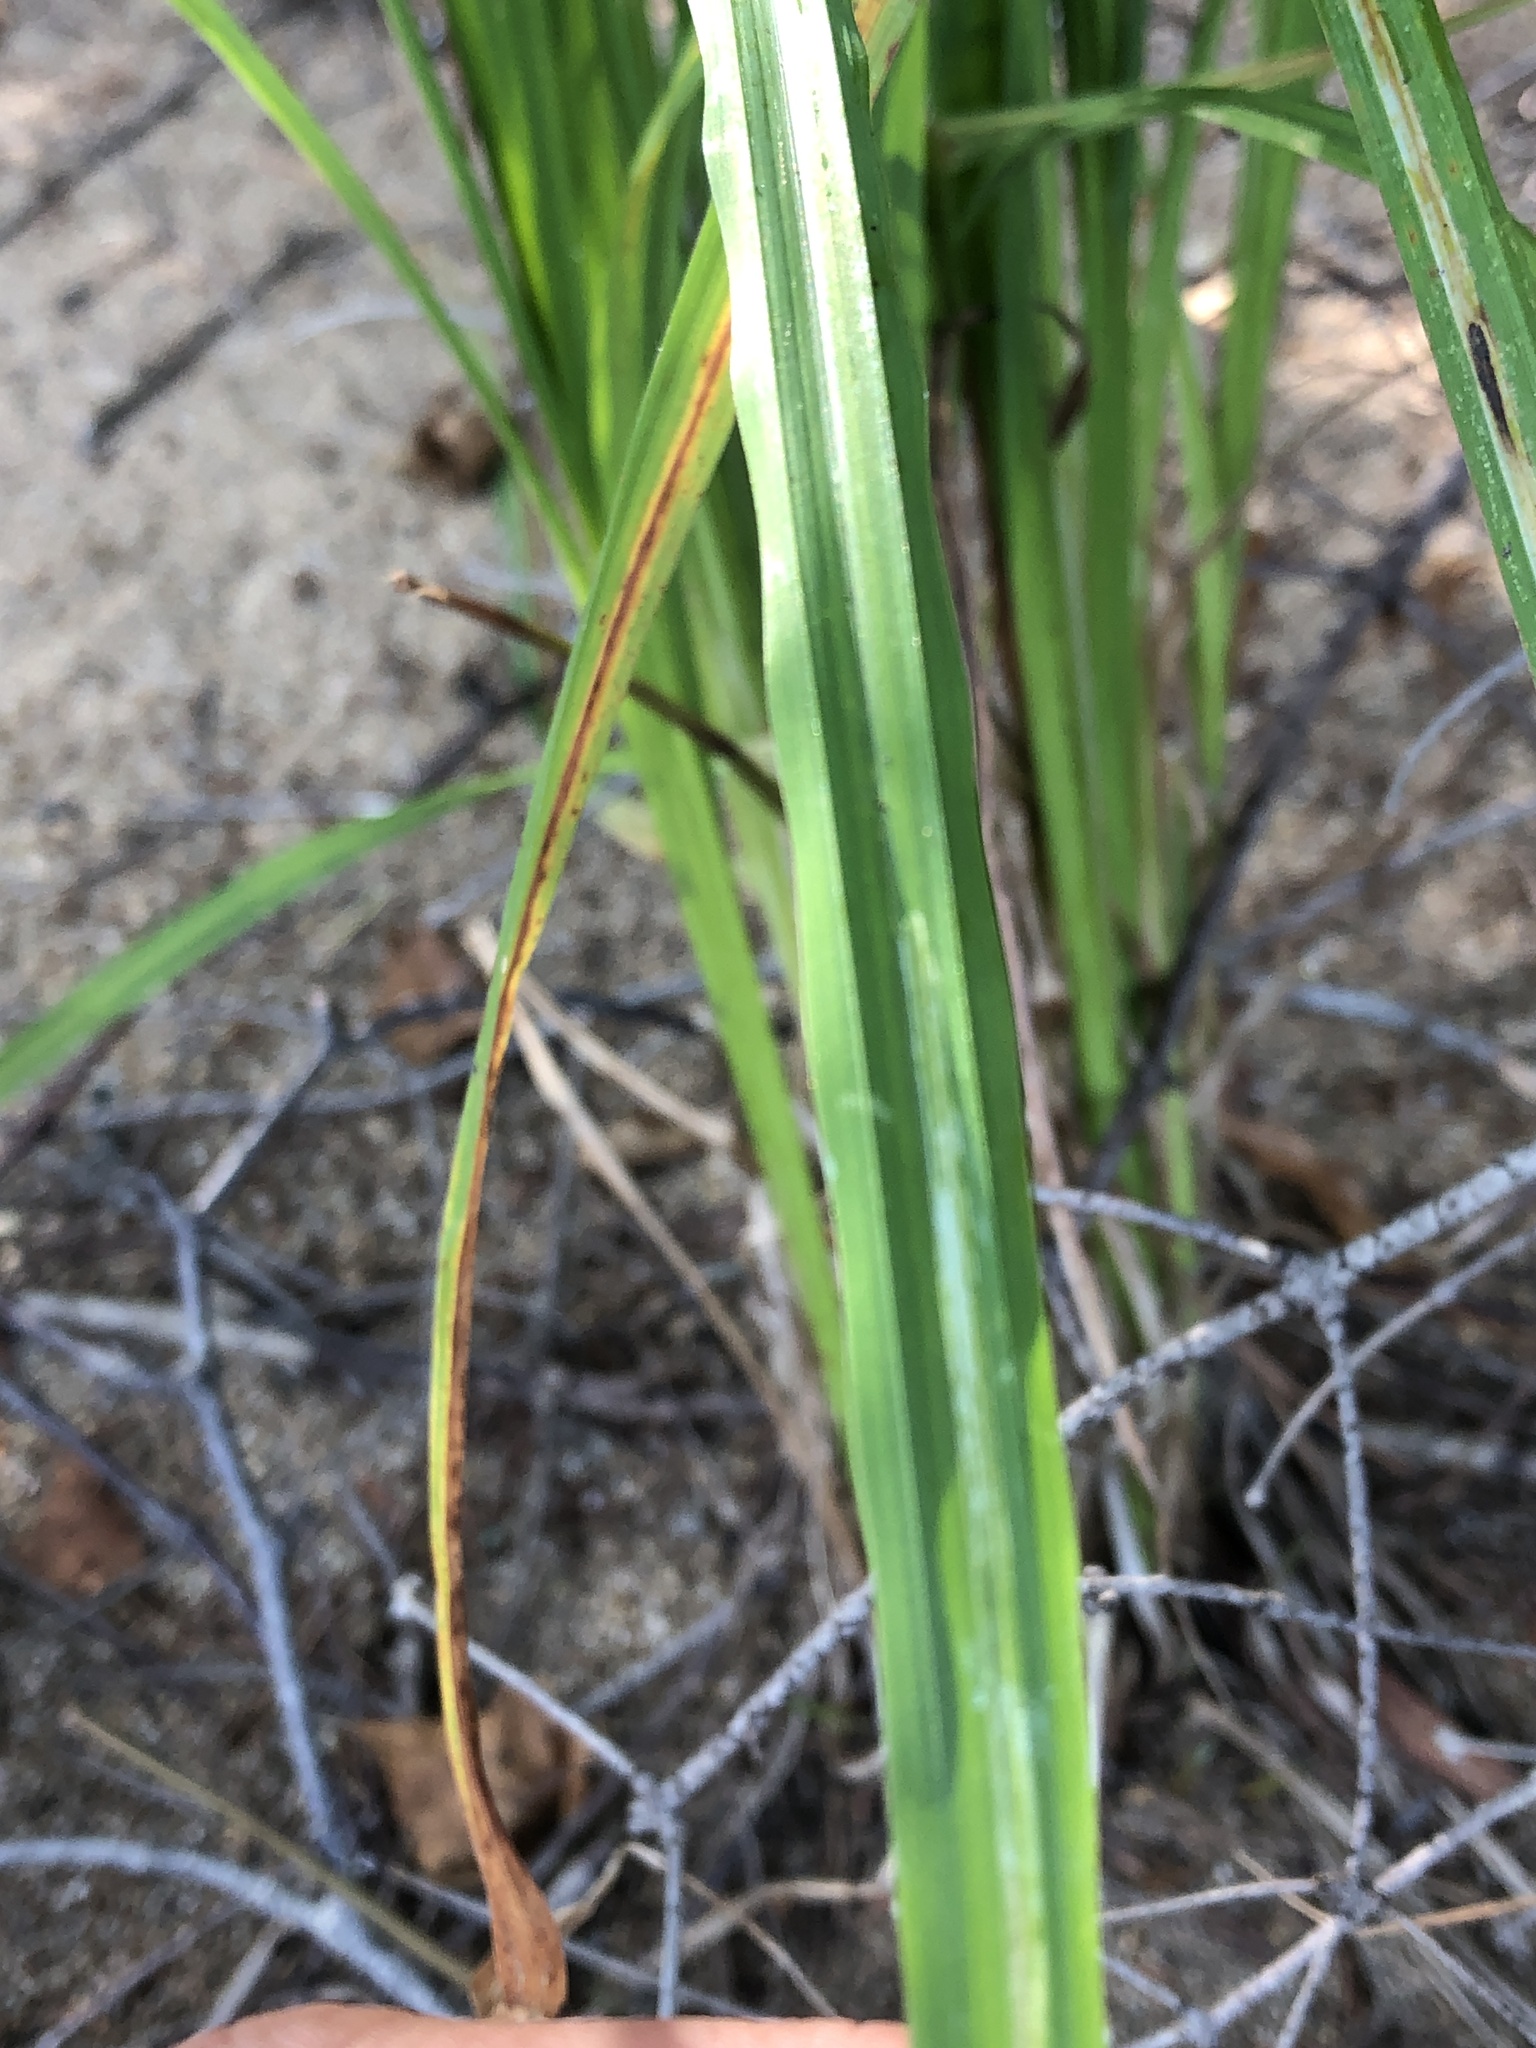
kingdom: Plantae
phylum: Tracheophyta
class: Liliopsida
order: Poales
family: Cyperaceae
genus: Carex
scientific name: Carex
